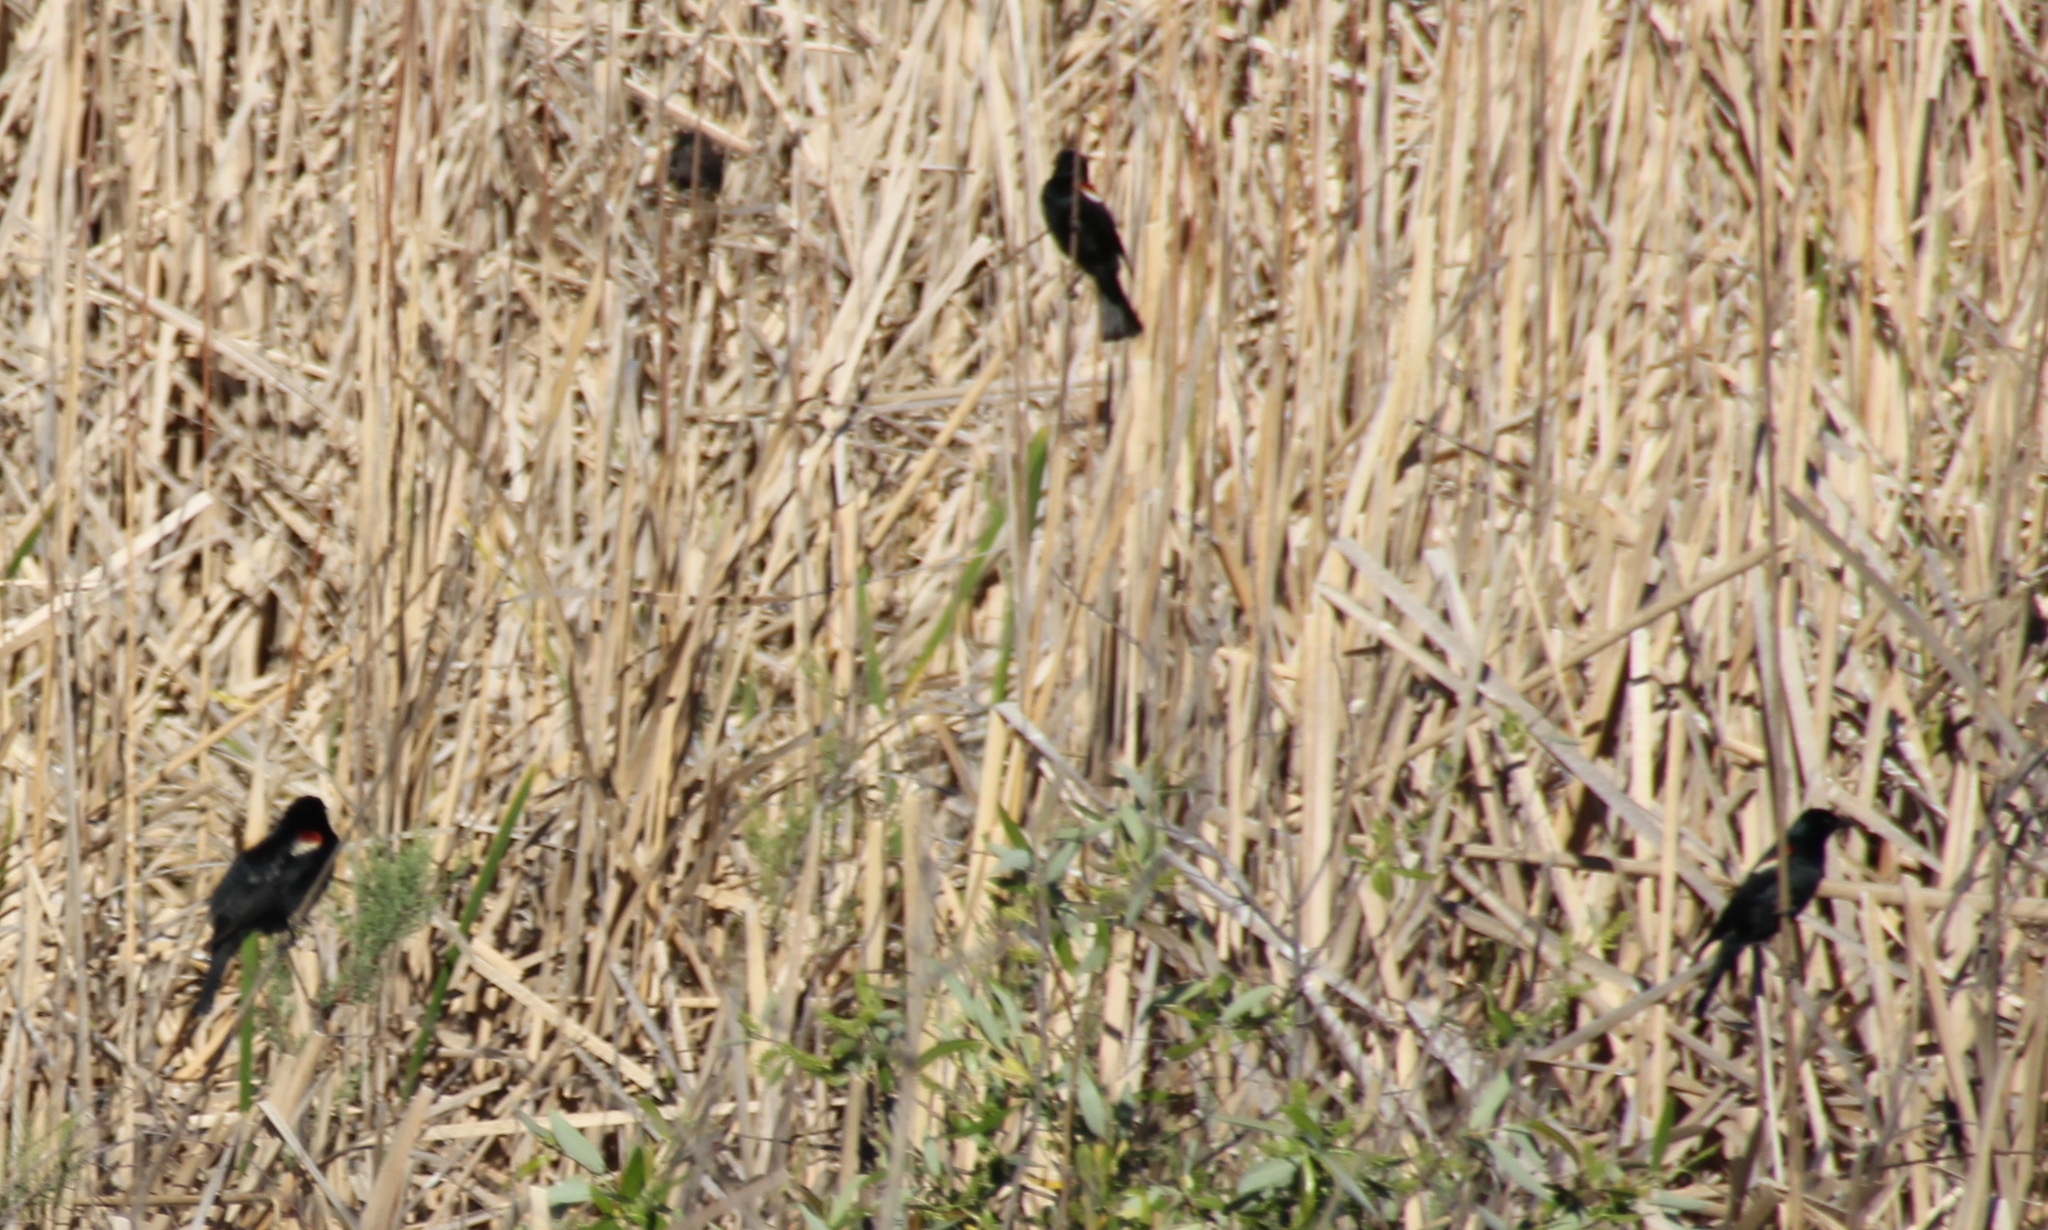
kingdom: Animalia
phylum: Chordata
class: Aves
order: Passeriformes
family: Icteridae
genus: Agelaius
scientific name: Agelaius tricolor
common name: Tricolored blackbird
